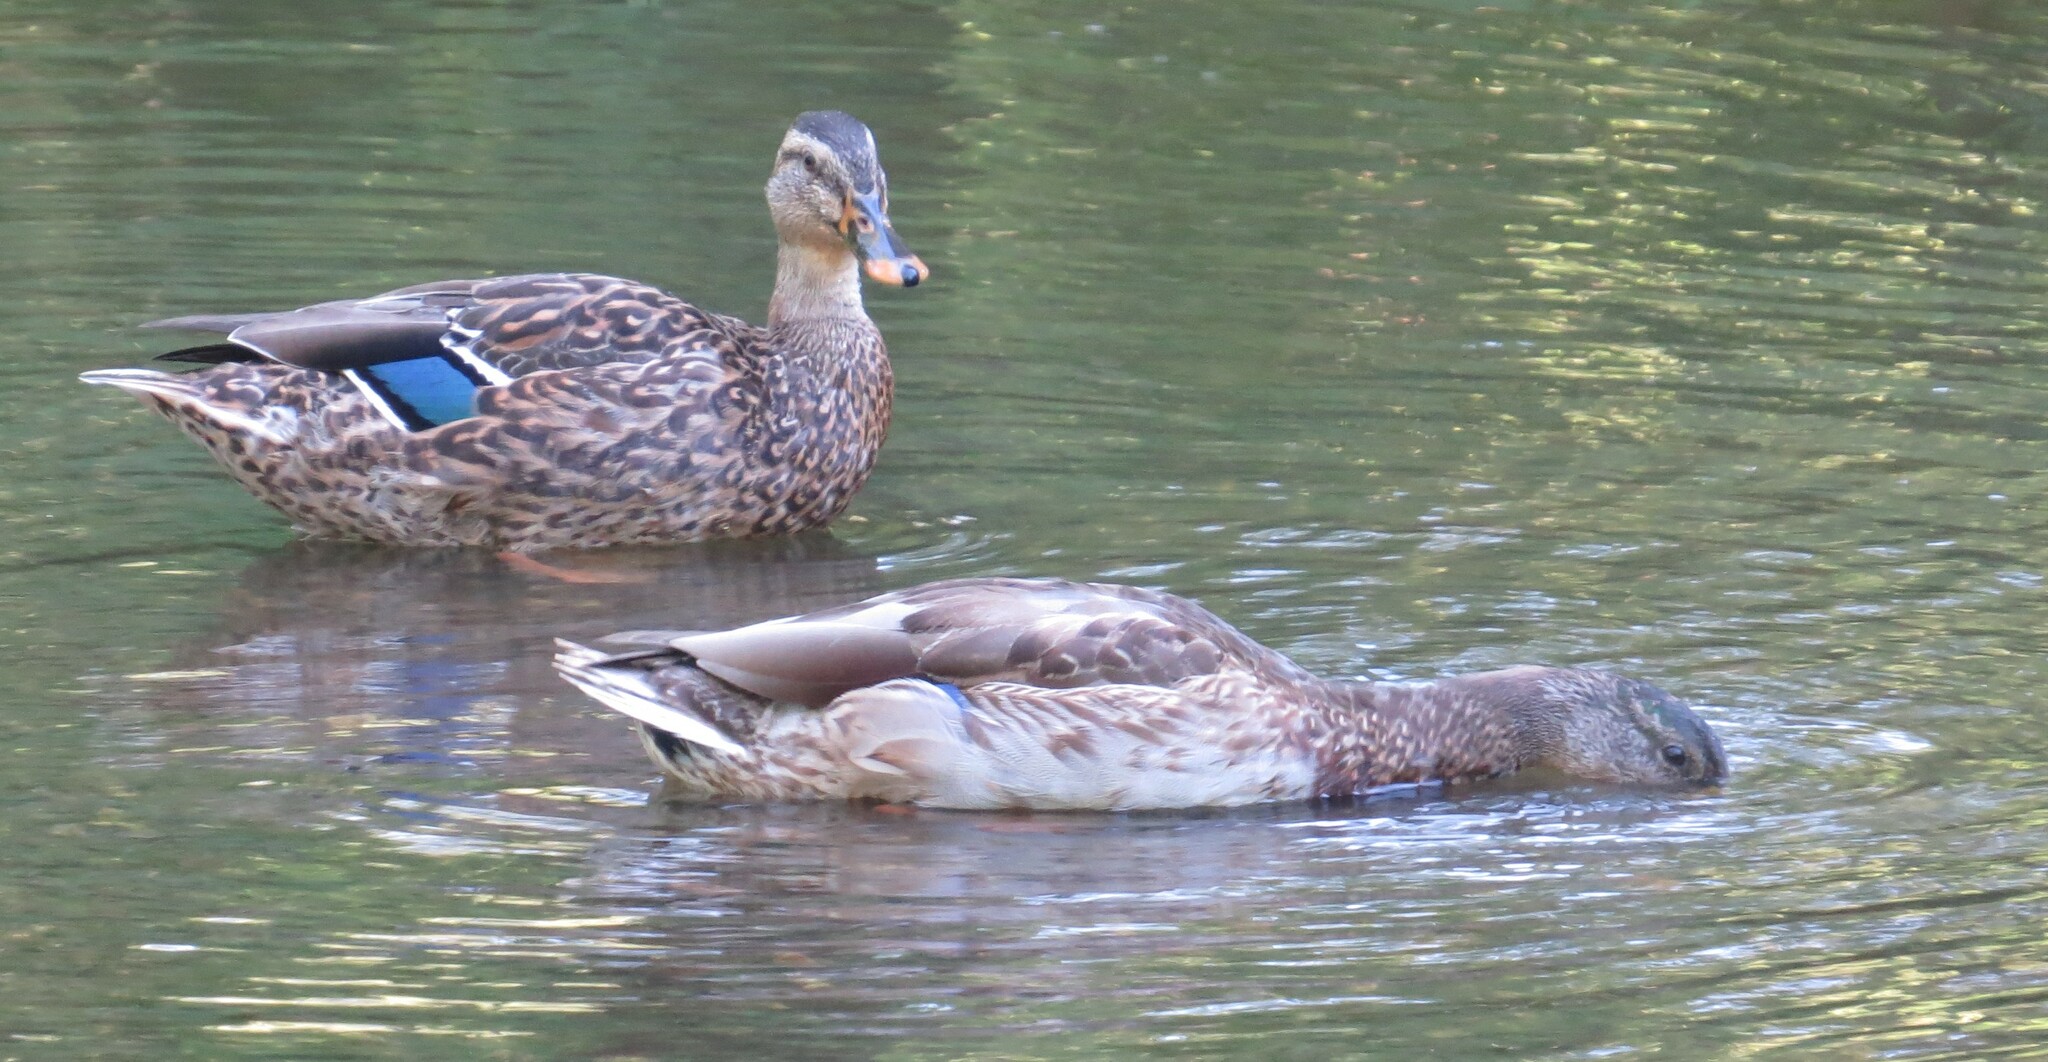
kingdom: Animalia
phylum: Chordata
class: Aves
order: Anseriformes
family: Anatidae
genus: Anas
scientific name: Anas platyrhynchos
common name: Mallard
